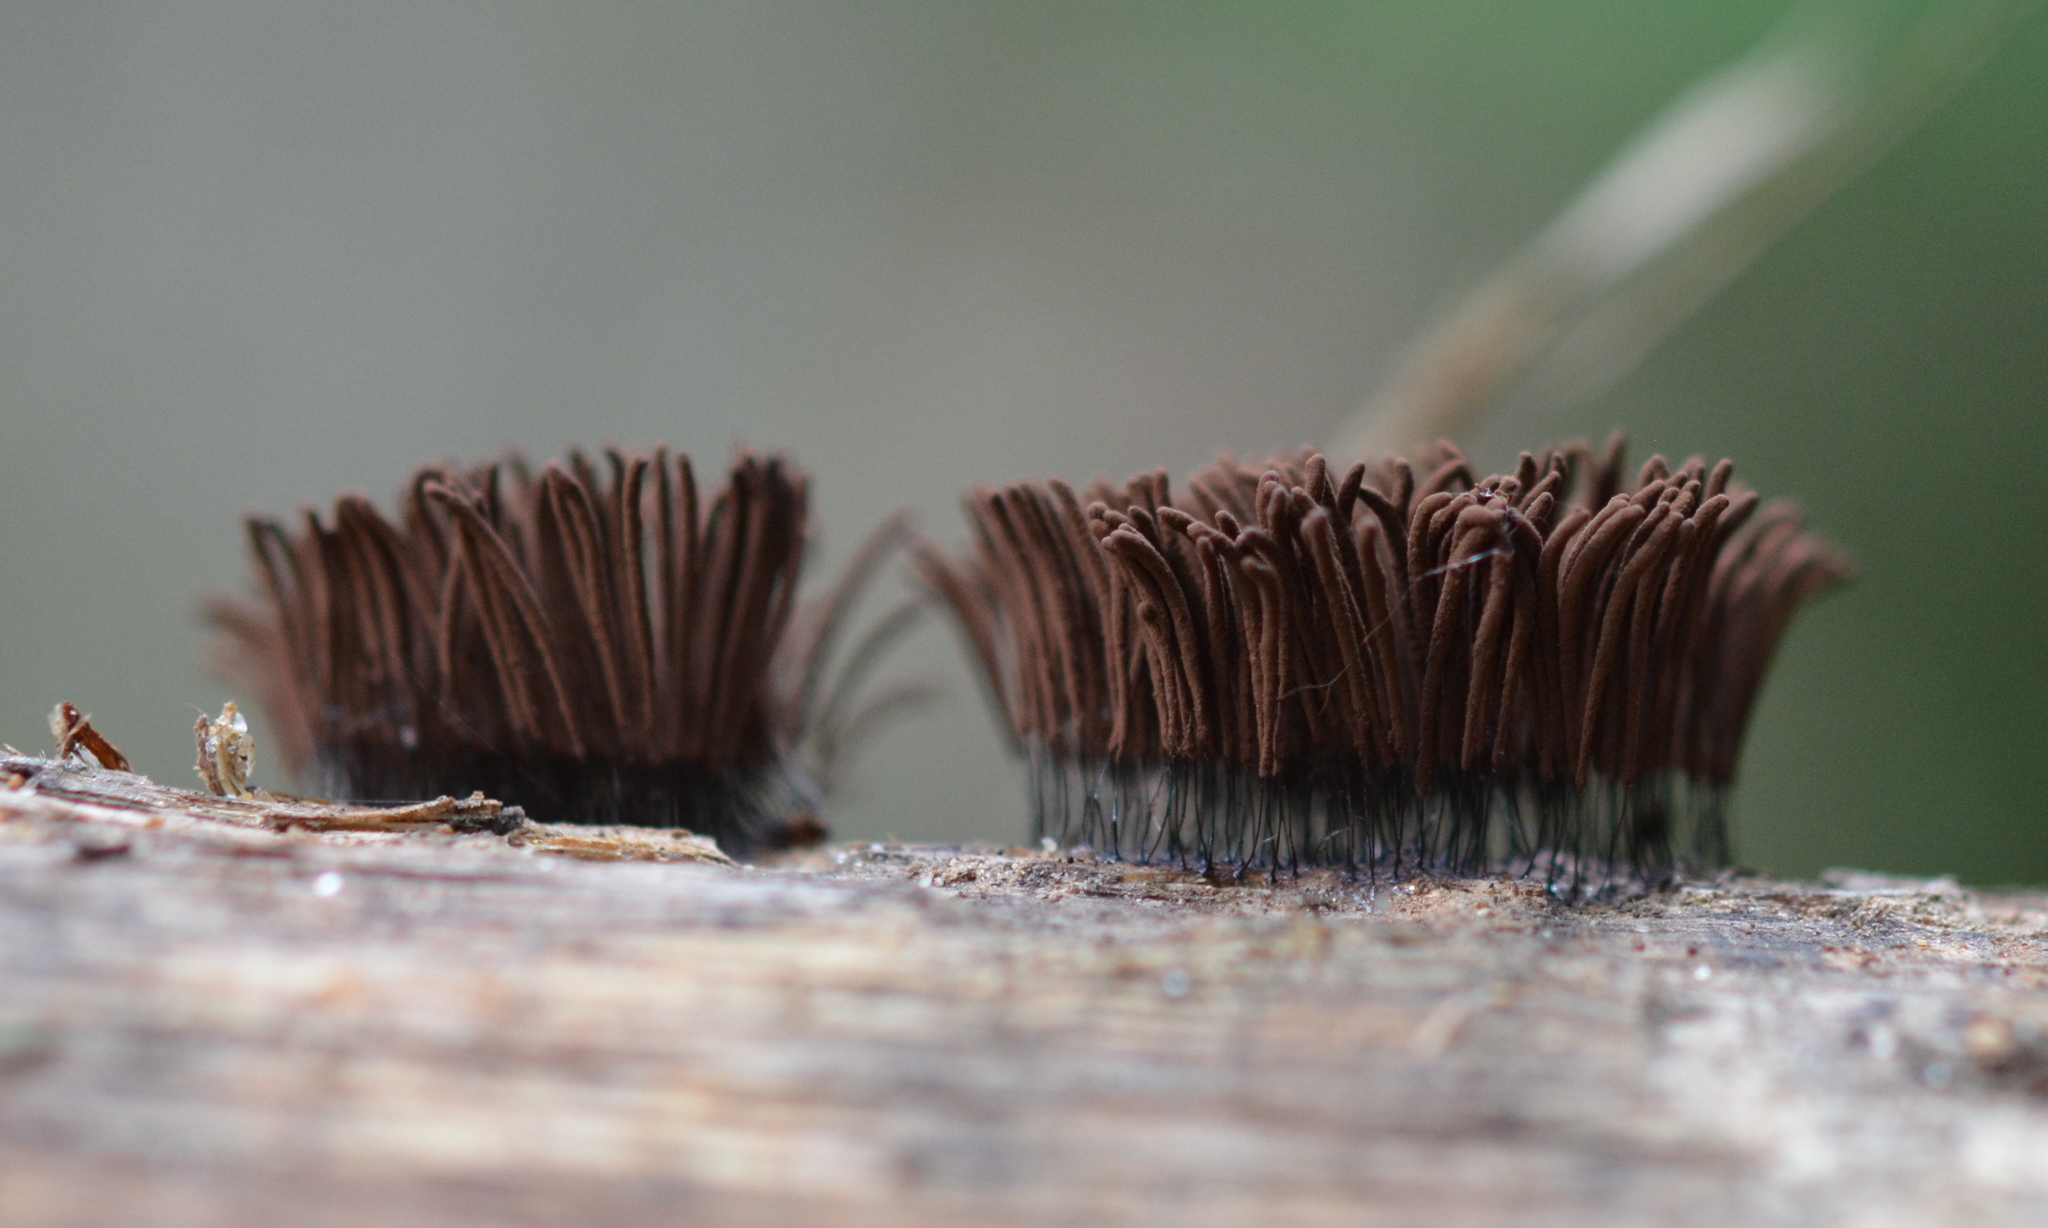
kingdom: Protozoa
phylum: Mycetozoa
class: Myxomycetes
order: Stemonitidales
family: Stemonitidaceae
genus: Stemonitis
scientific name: Stemonitis splendens
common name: Chocolate tube slime
